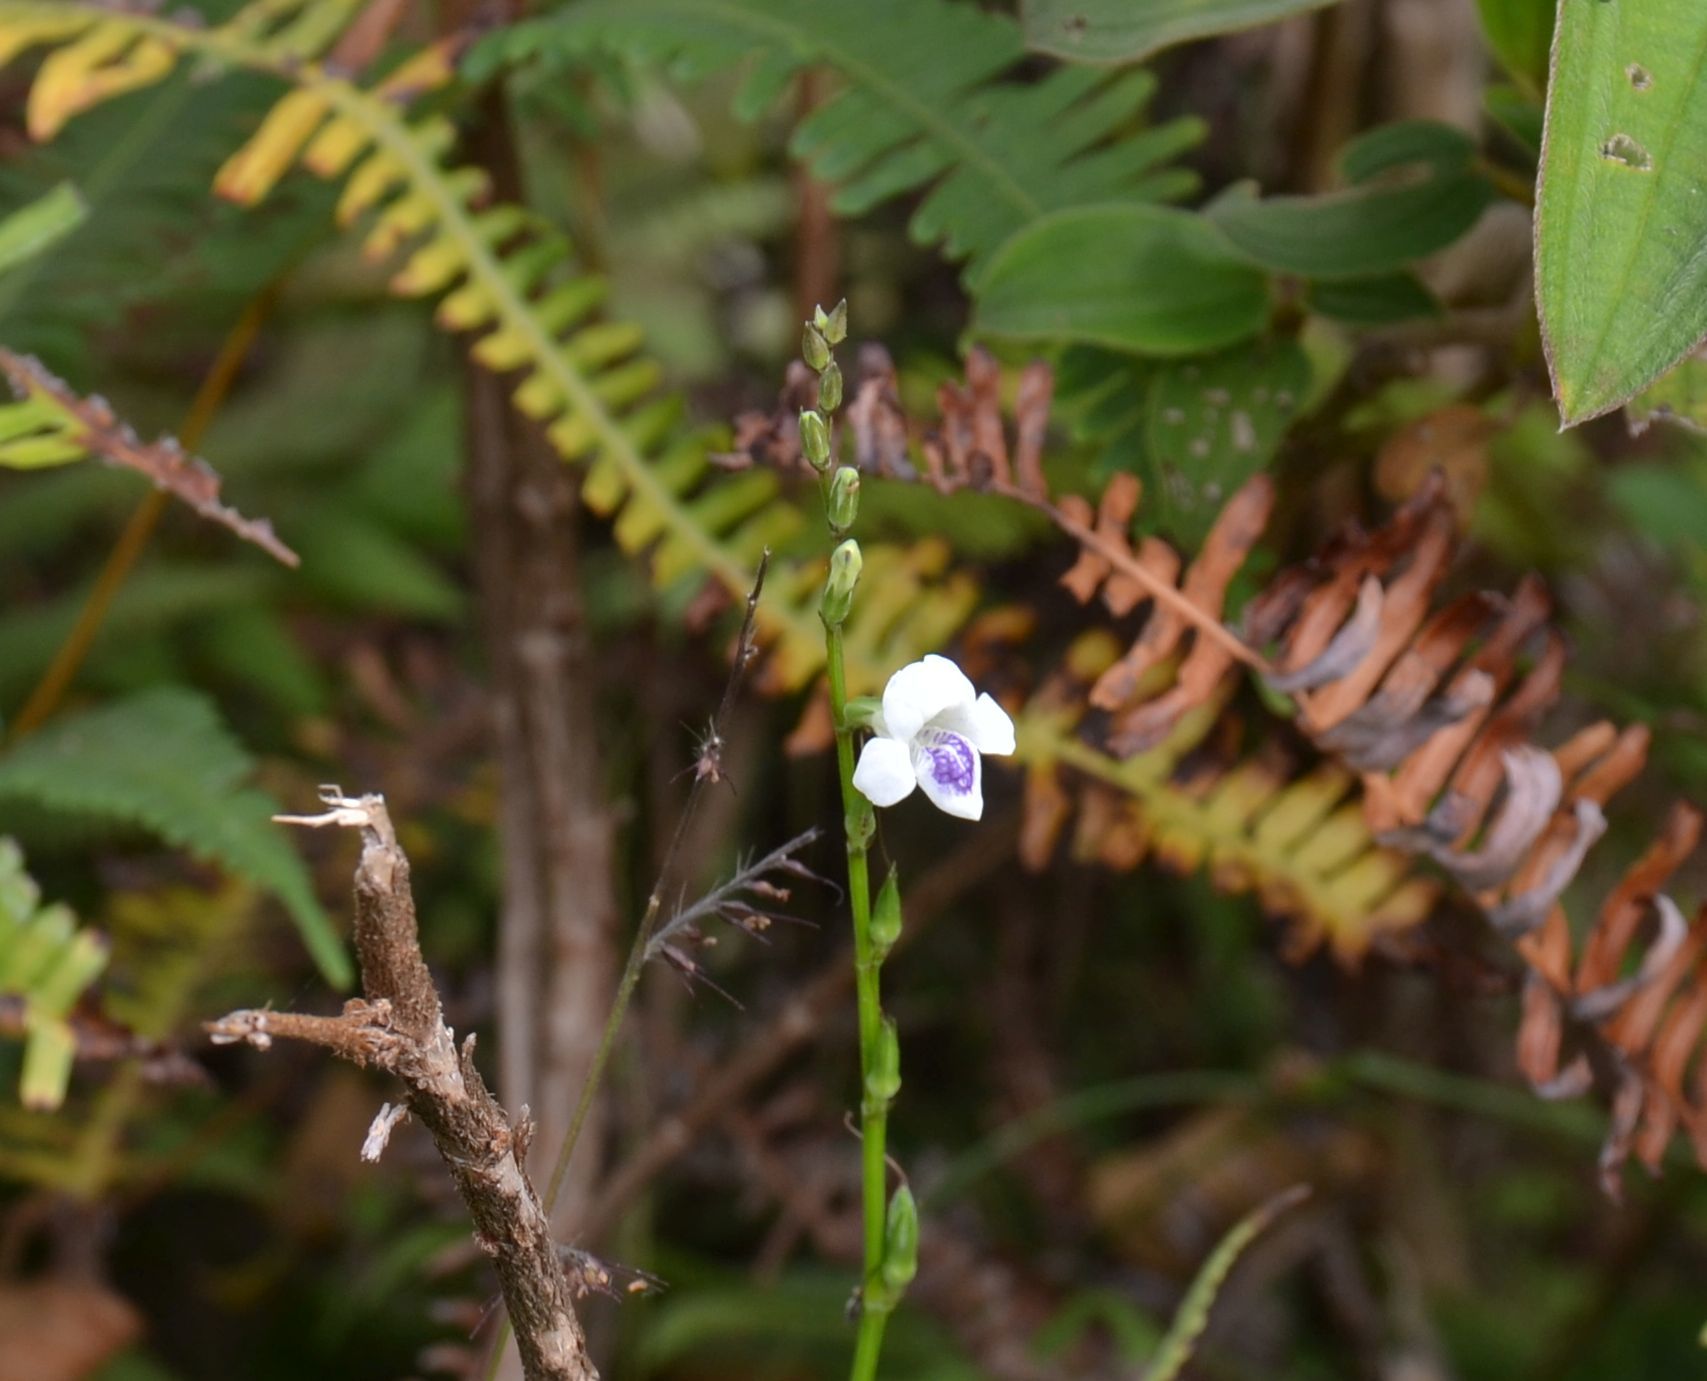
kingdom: Plantae
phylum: Tracheophyta
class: Magnoliopsida
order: Lamiales
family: Acanthaceae
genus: Asystasia
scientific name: Asystasia intrusa
